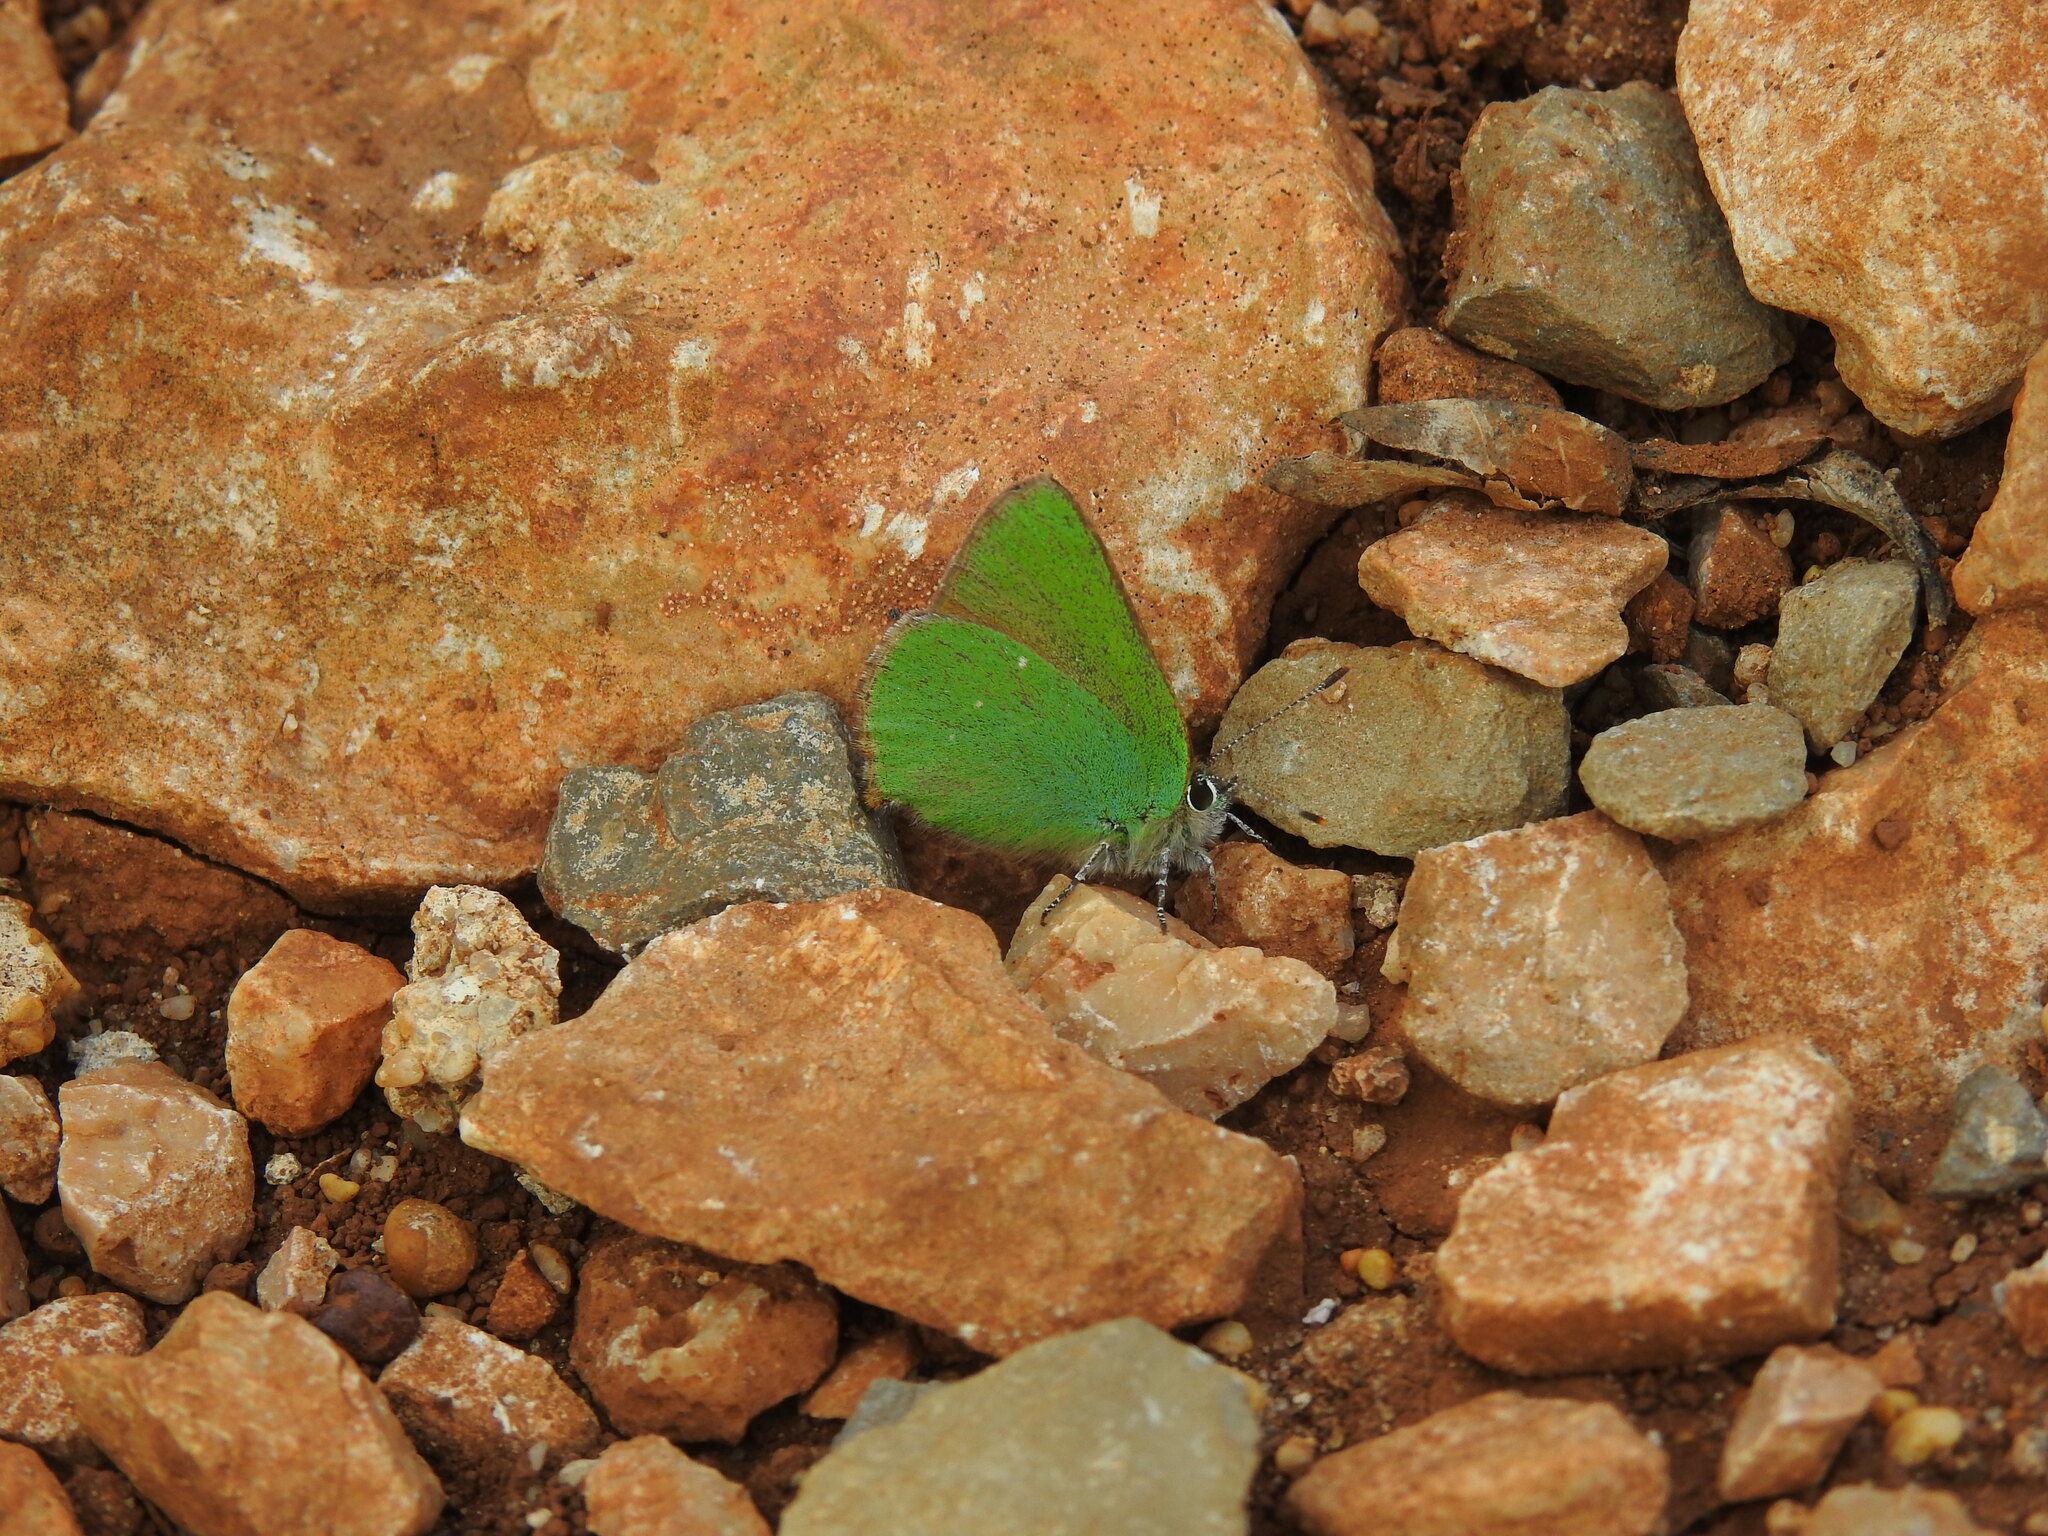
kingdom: Animalia
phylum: Arthropoda
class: Insecta
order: Lepidoptera
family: Lycaenidae
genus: Callophrys
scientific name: Callophrys rubi
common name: Green hairstreak
